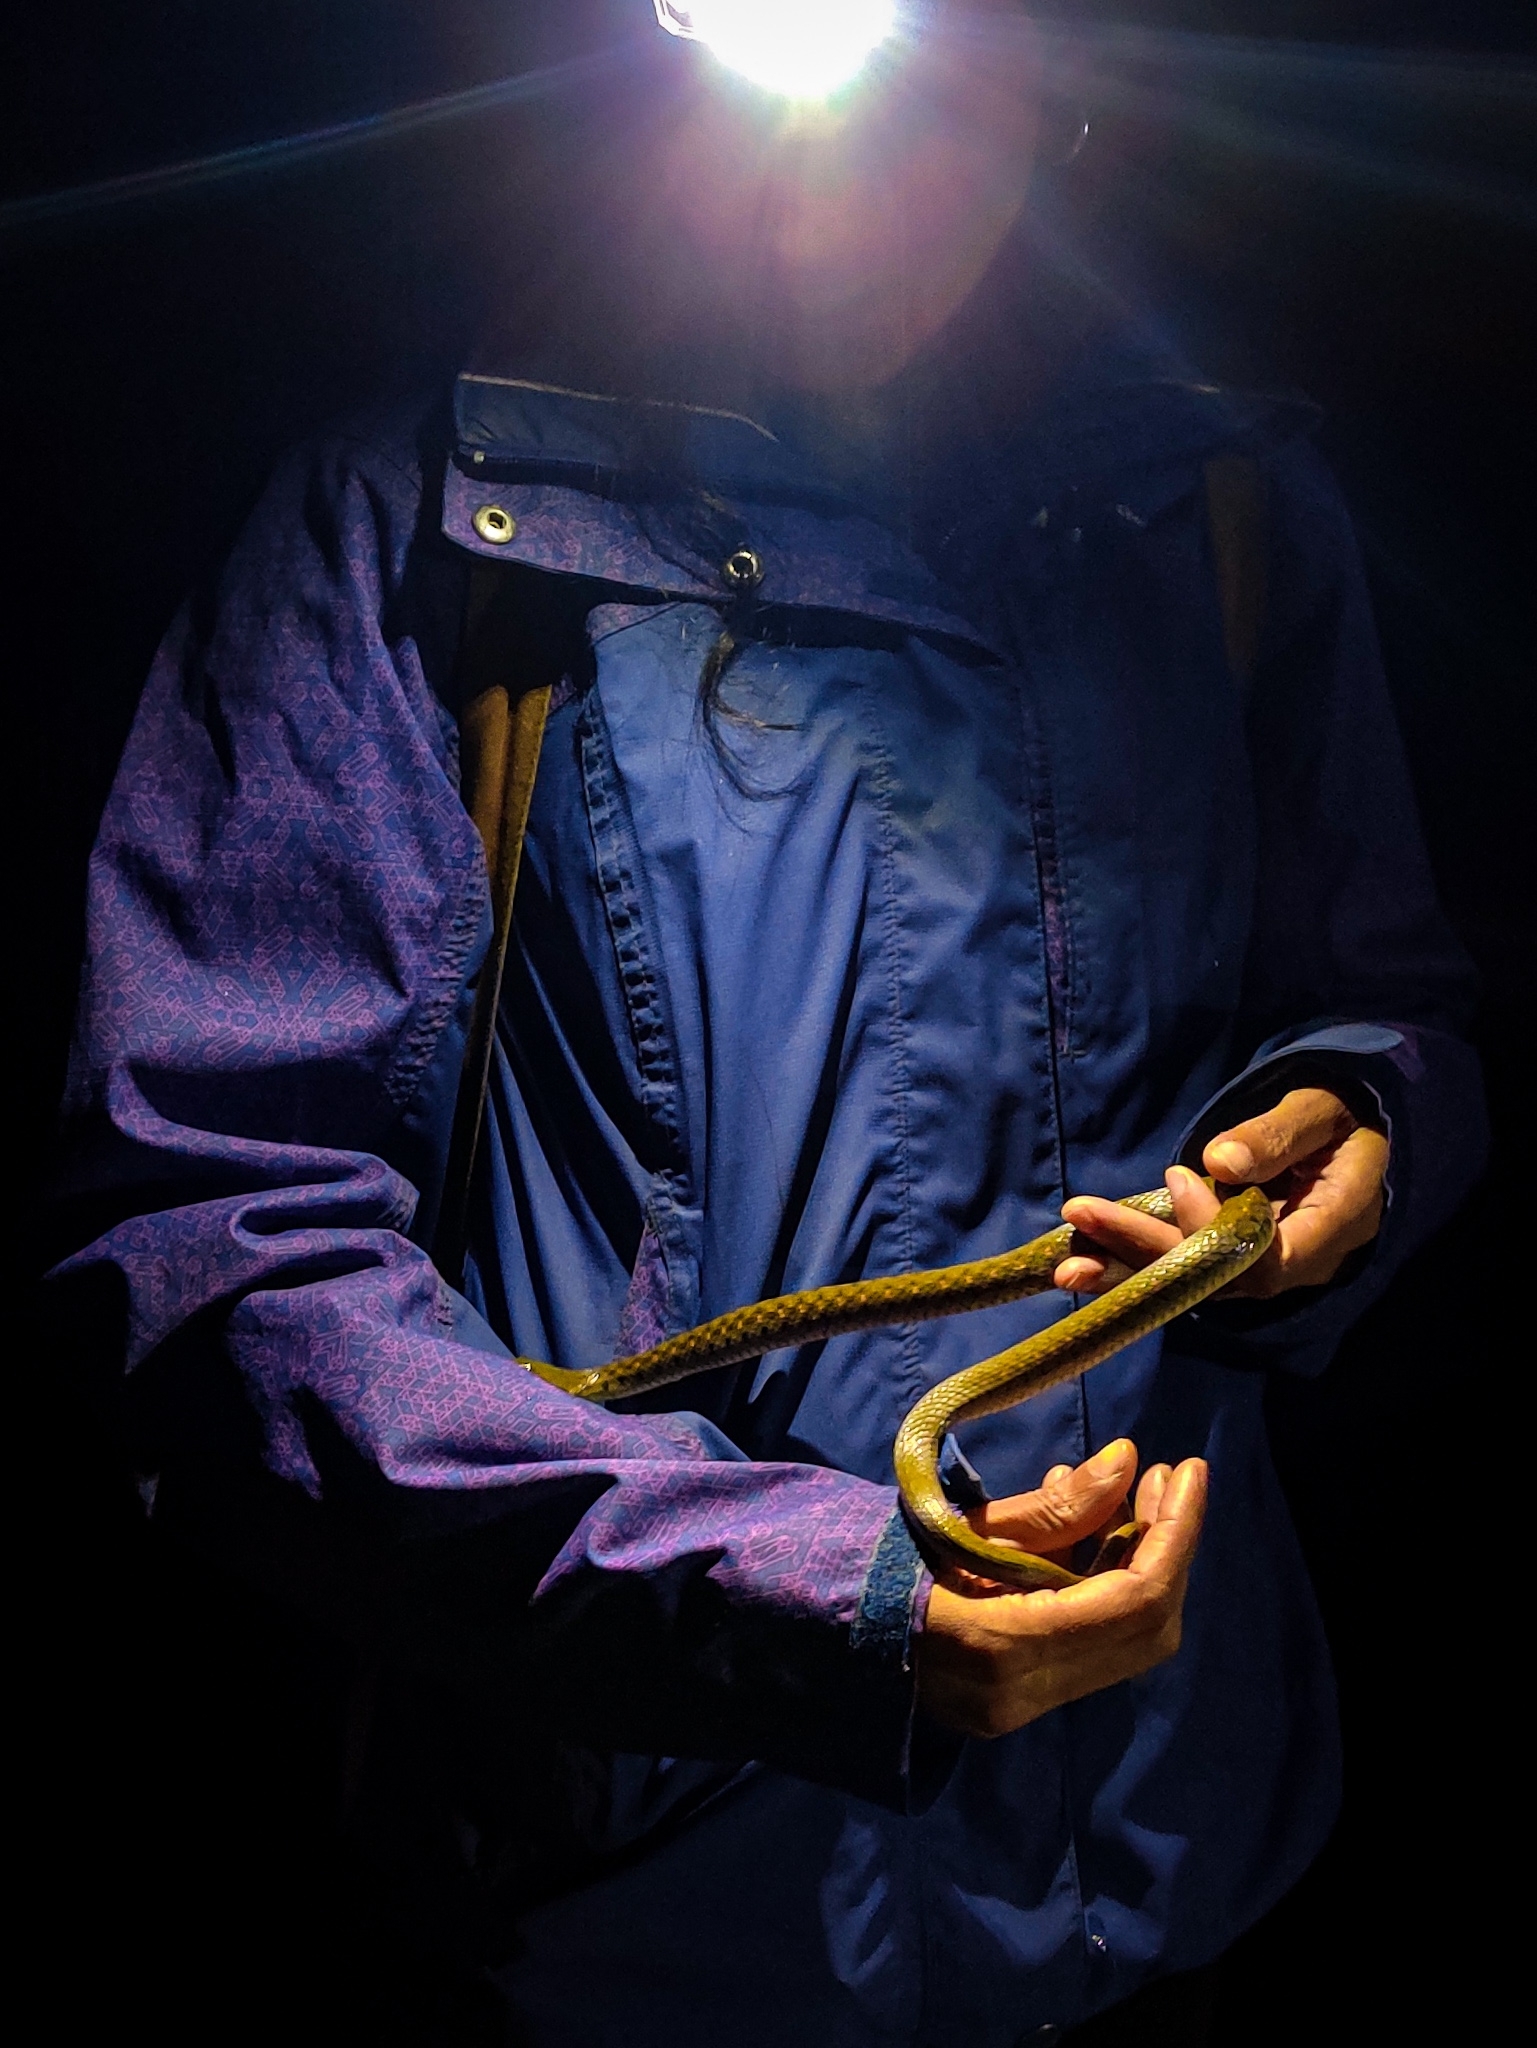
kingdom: Animalia
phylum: Chordata
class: Squamata
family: Colubridae
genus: Fowlea
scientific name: Fowlea piscator
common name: Asiatic water snake
